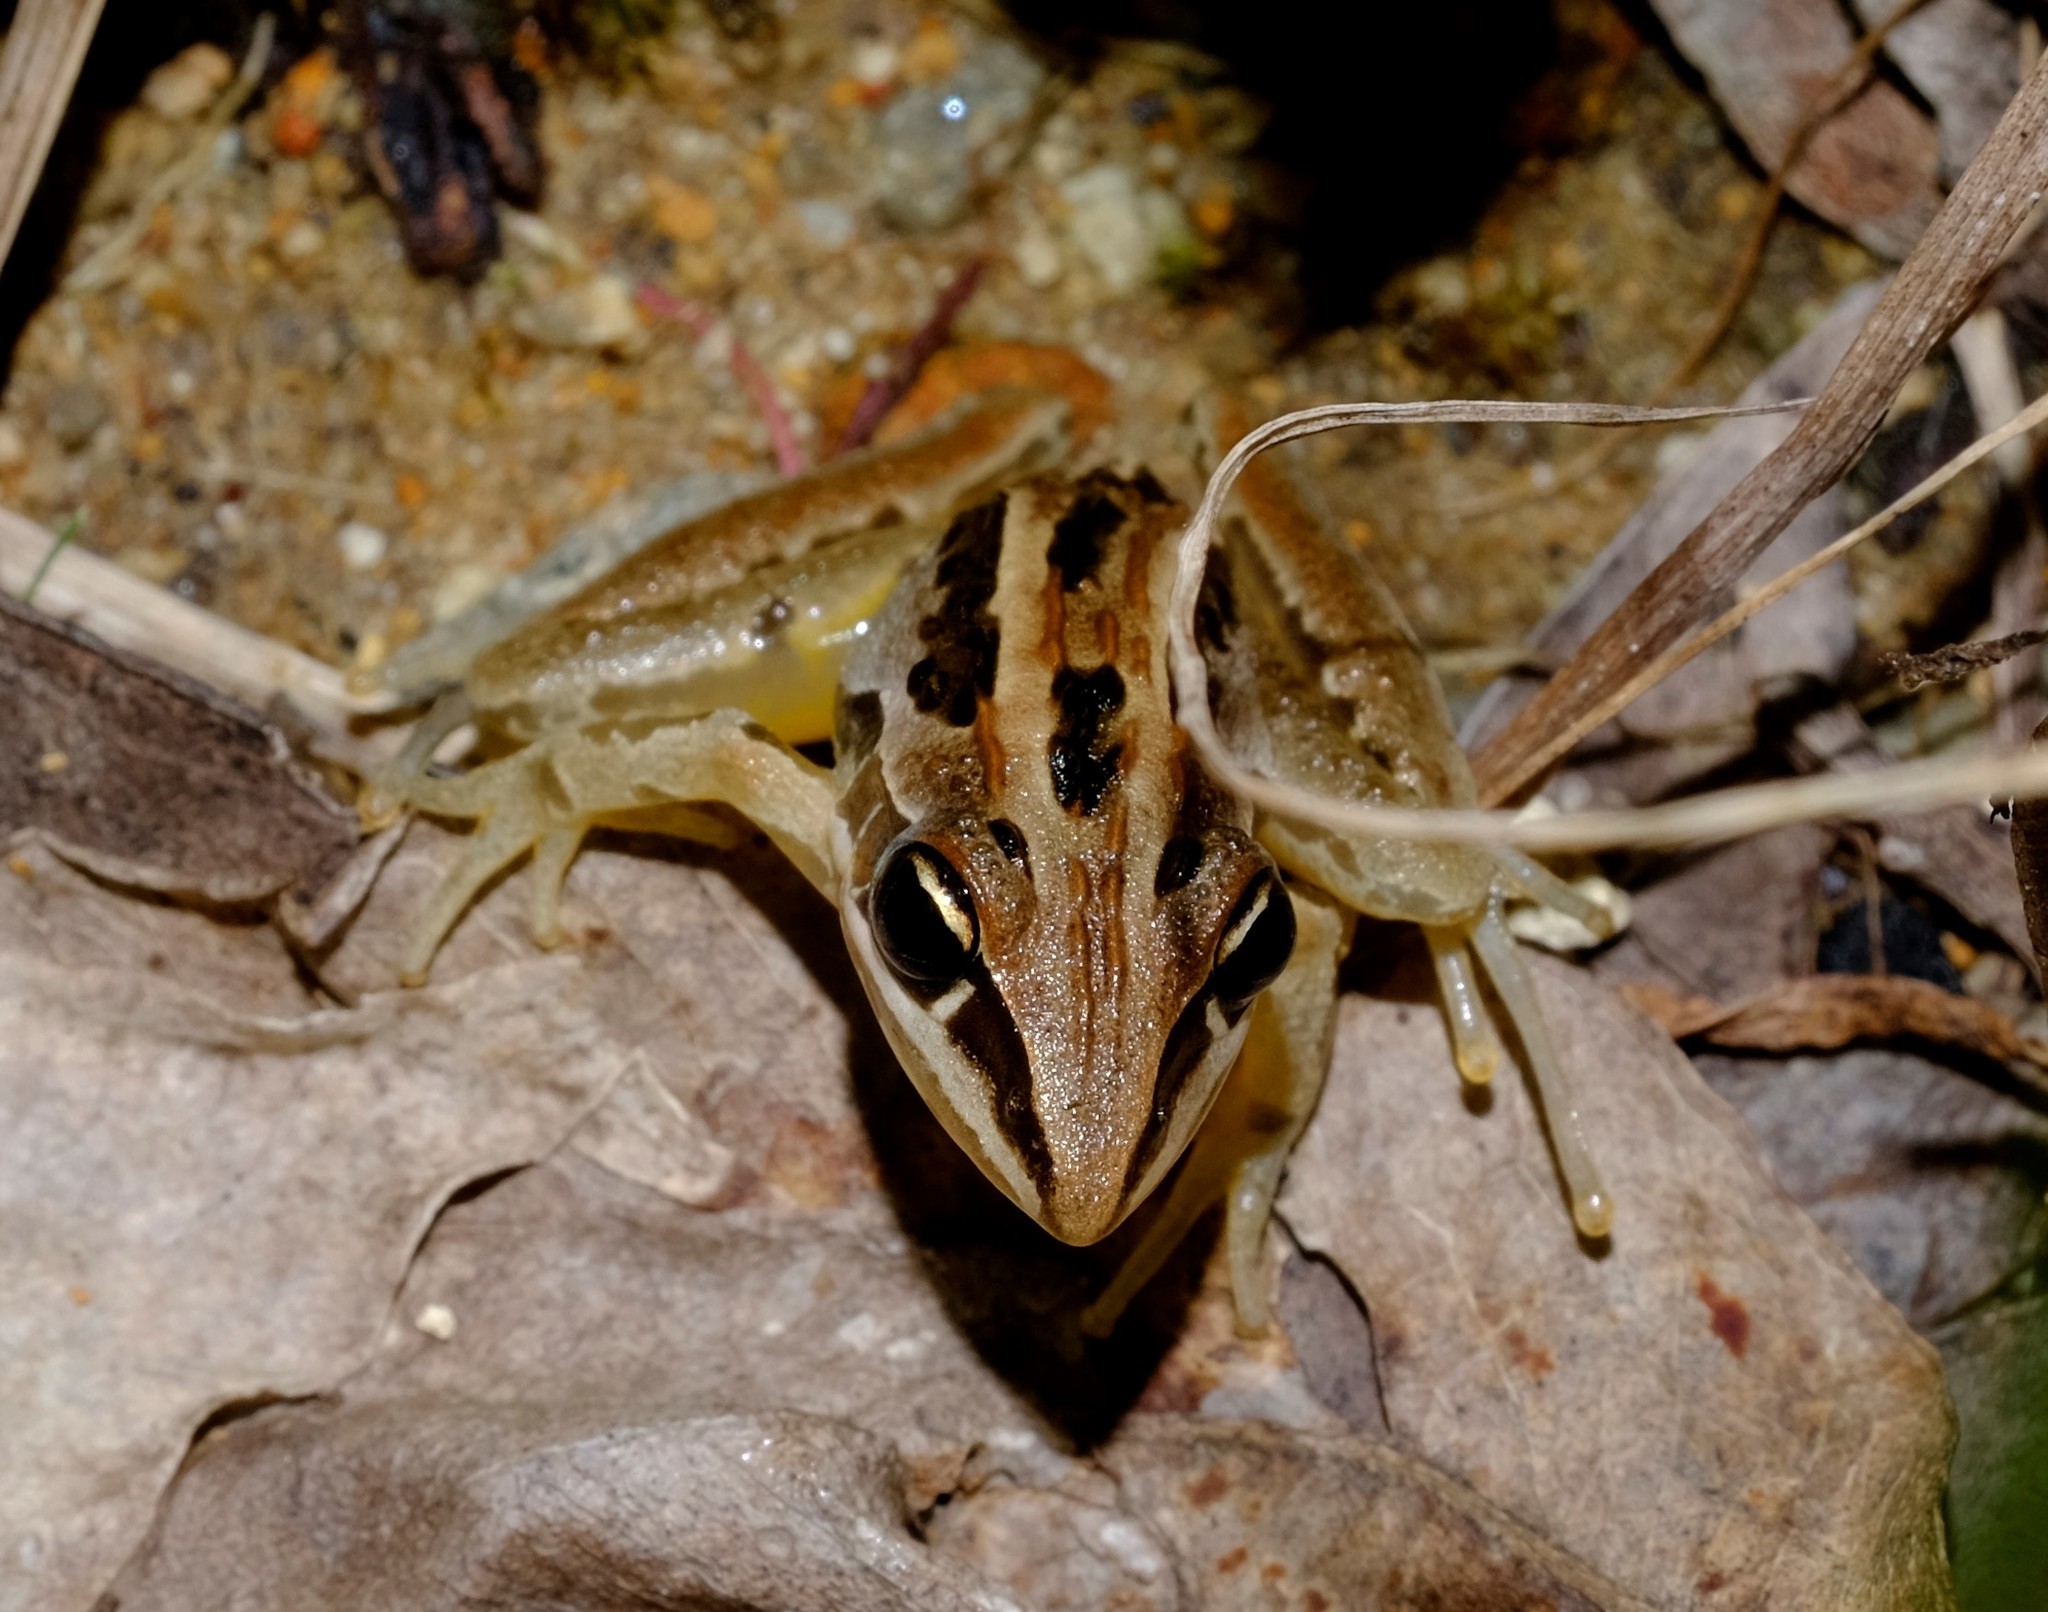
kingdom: Animalia
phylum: Chordata
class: Amphibia
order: Anura
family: Pelodryadidae
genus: Litoria
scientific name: Litoria nasuta
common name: Rocket frog
